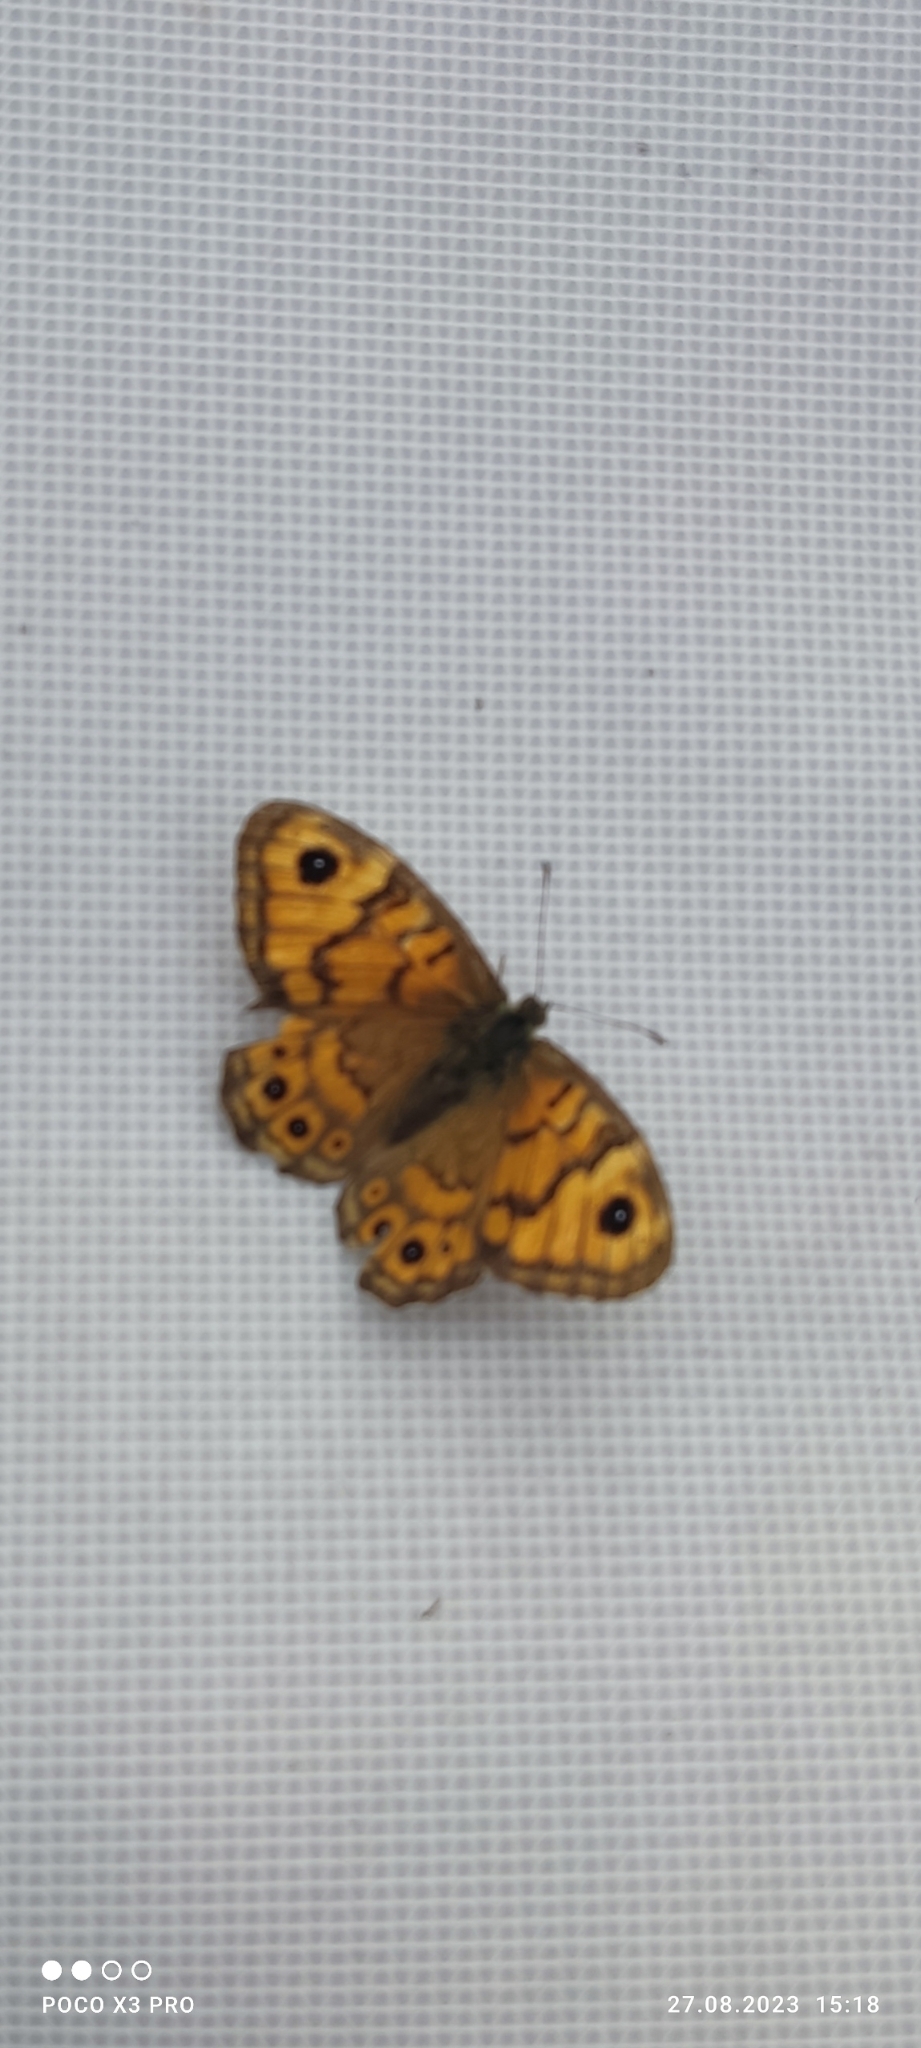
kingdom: Animalia
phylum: Arthropoda
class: Insecta
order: Lepidoptera
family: Nymphalidae
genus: Pararge
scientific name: Pararge Lasiommata megera
